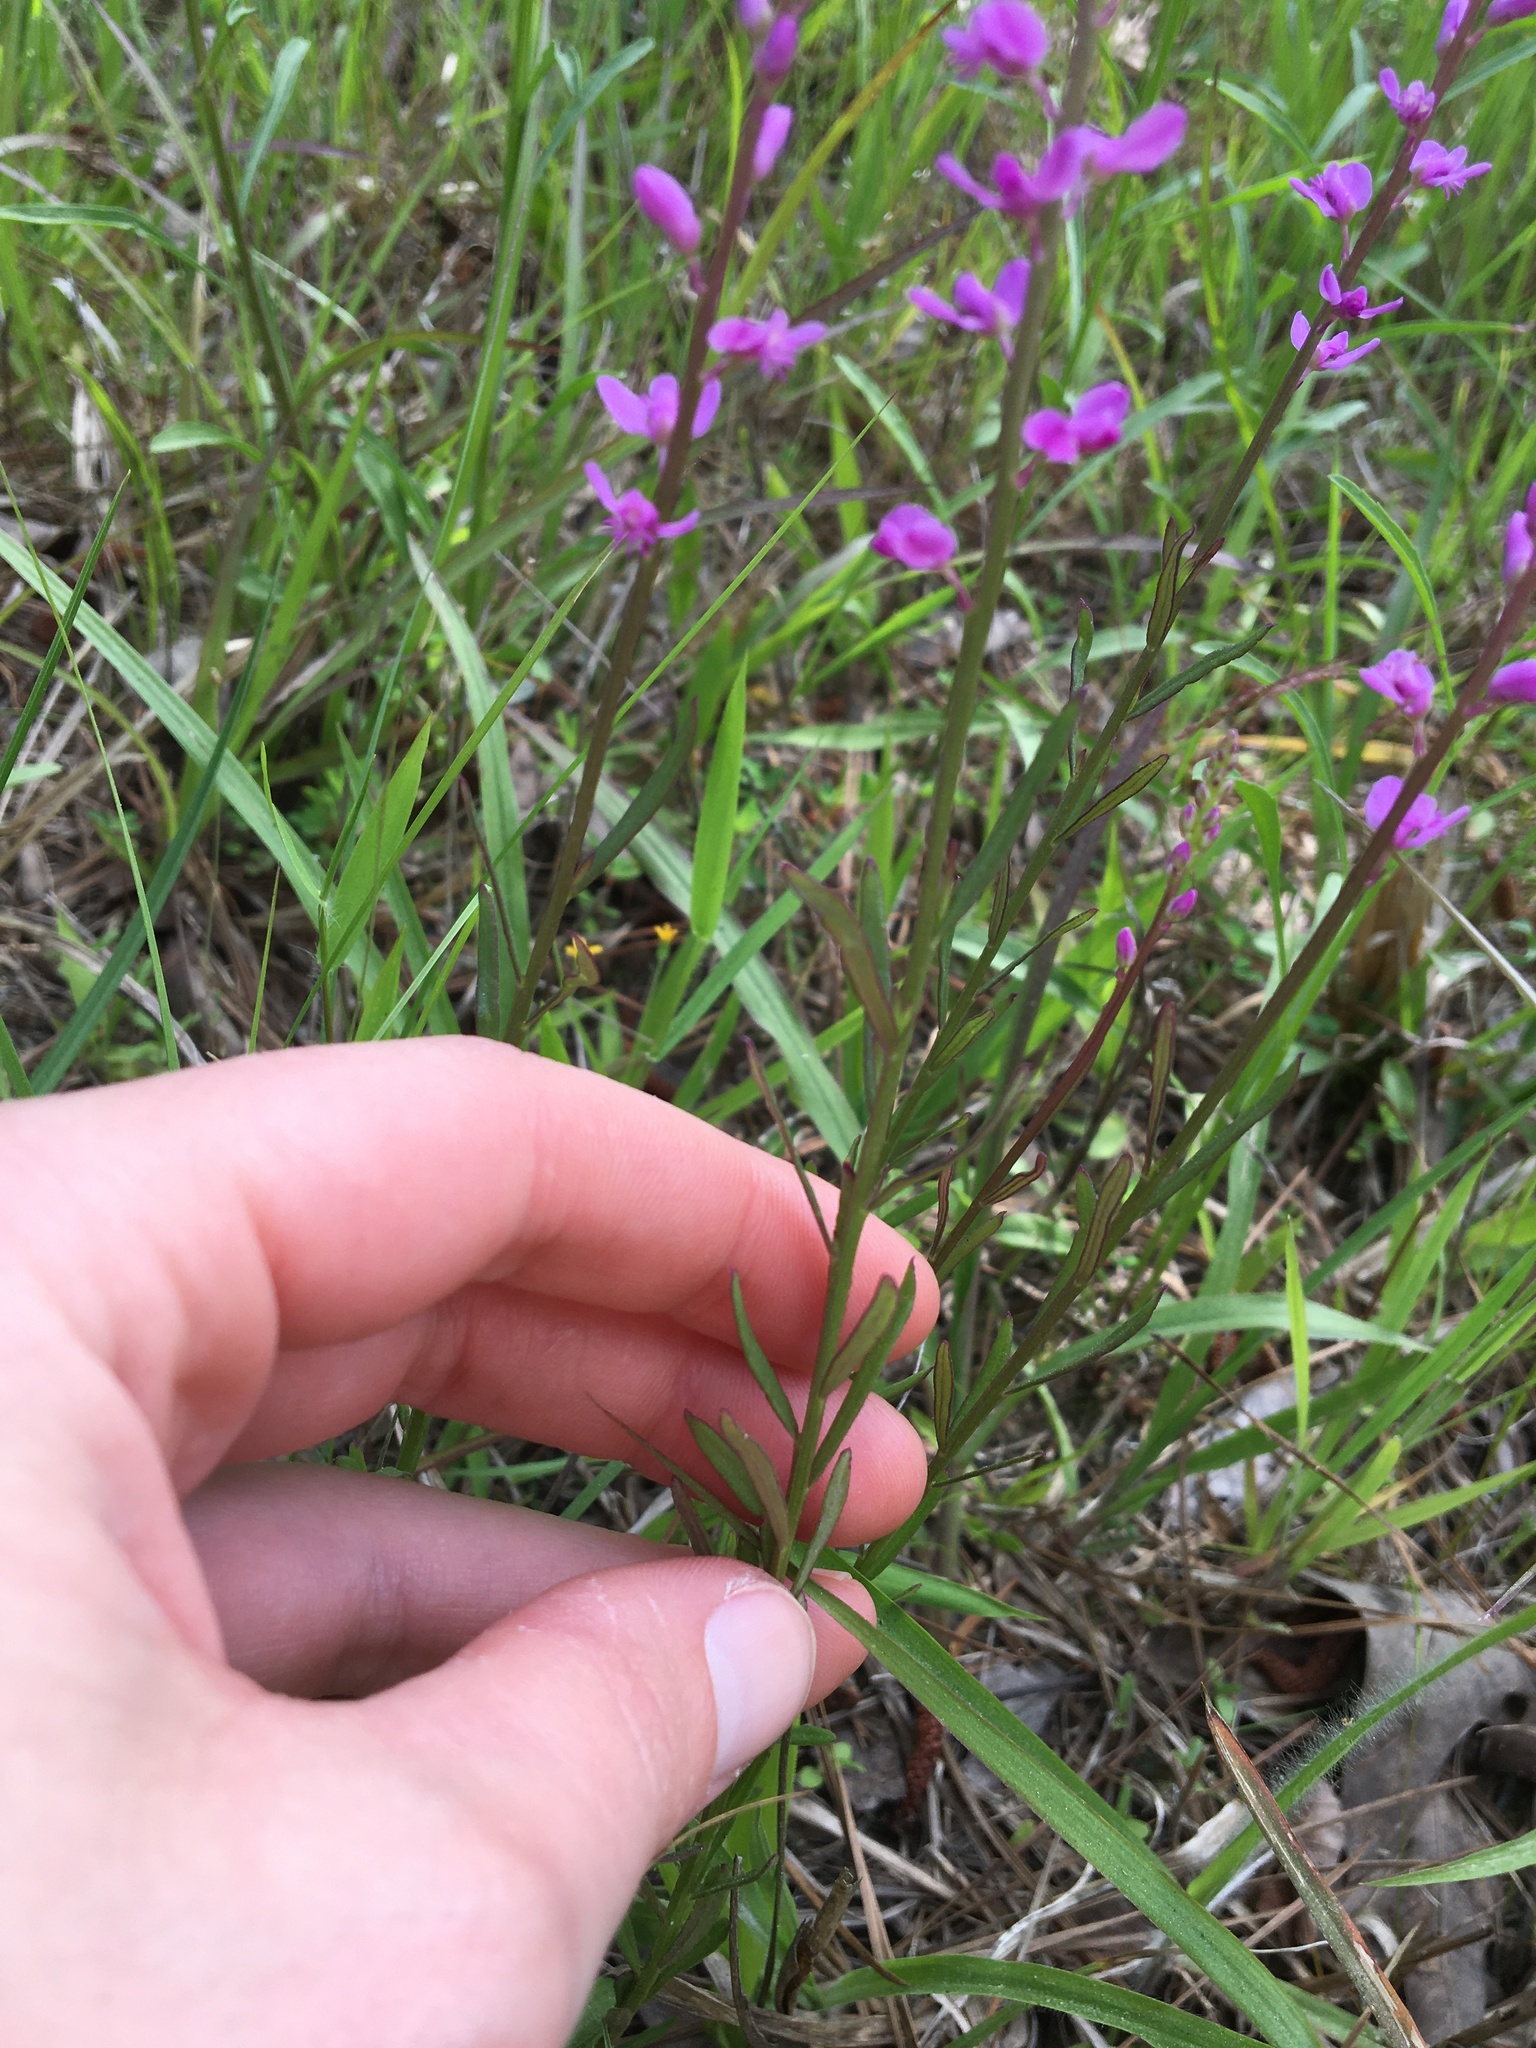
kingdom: Plantae
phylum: Tracheophyta
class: Magnoliopsida
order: Fabales
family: Polygalaceae
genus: Polygala
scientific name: Polygala polygama
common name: Bitter milkwort
